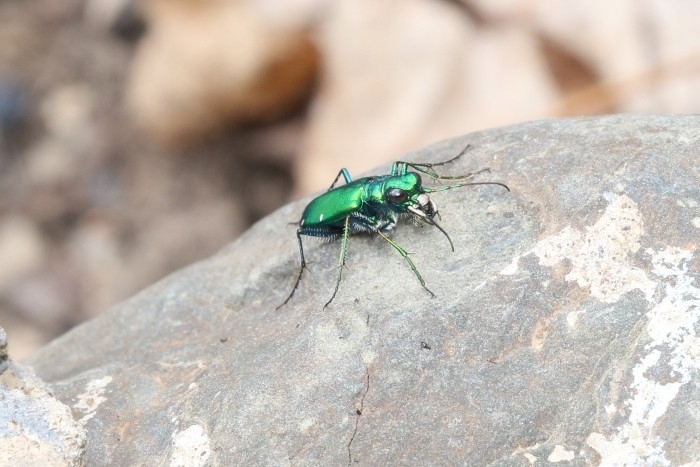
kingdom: Animalia
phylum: Arthropoda
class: Insecta
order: Coleoptera
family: Carabidae
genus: Cicindela
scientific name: Cicindela sexguttata
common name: Six-spotted tiger beetle
